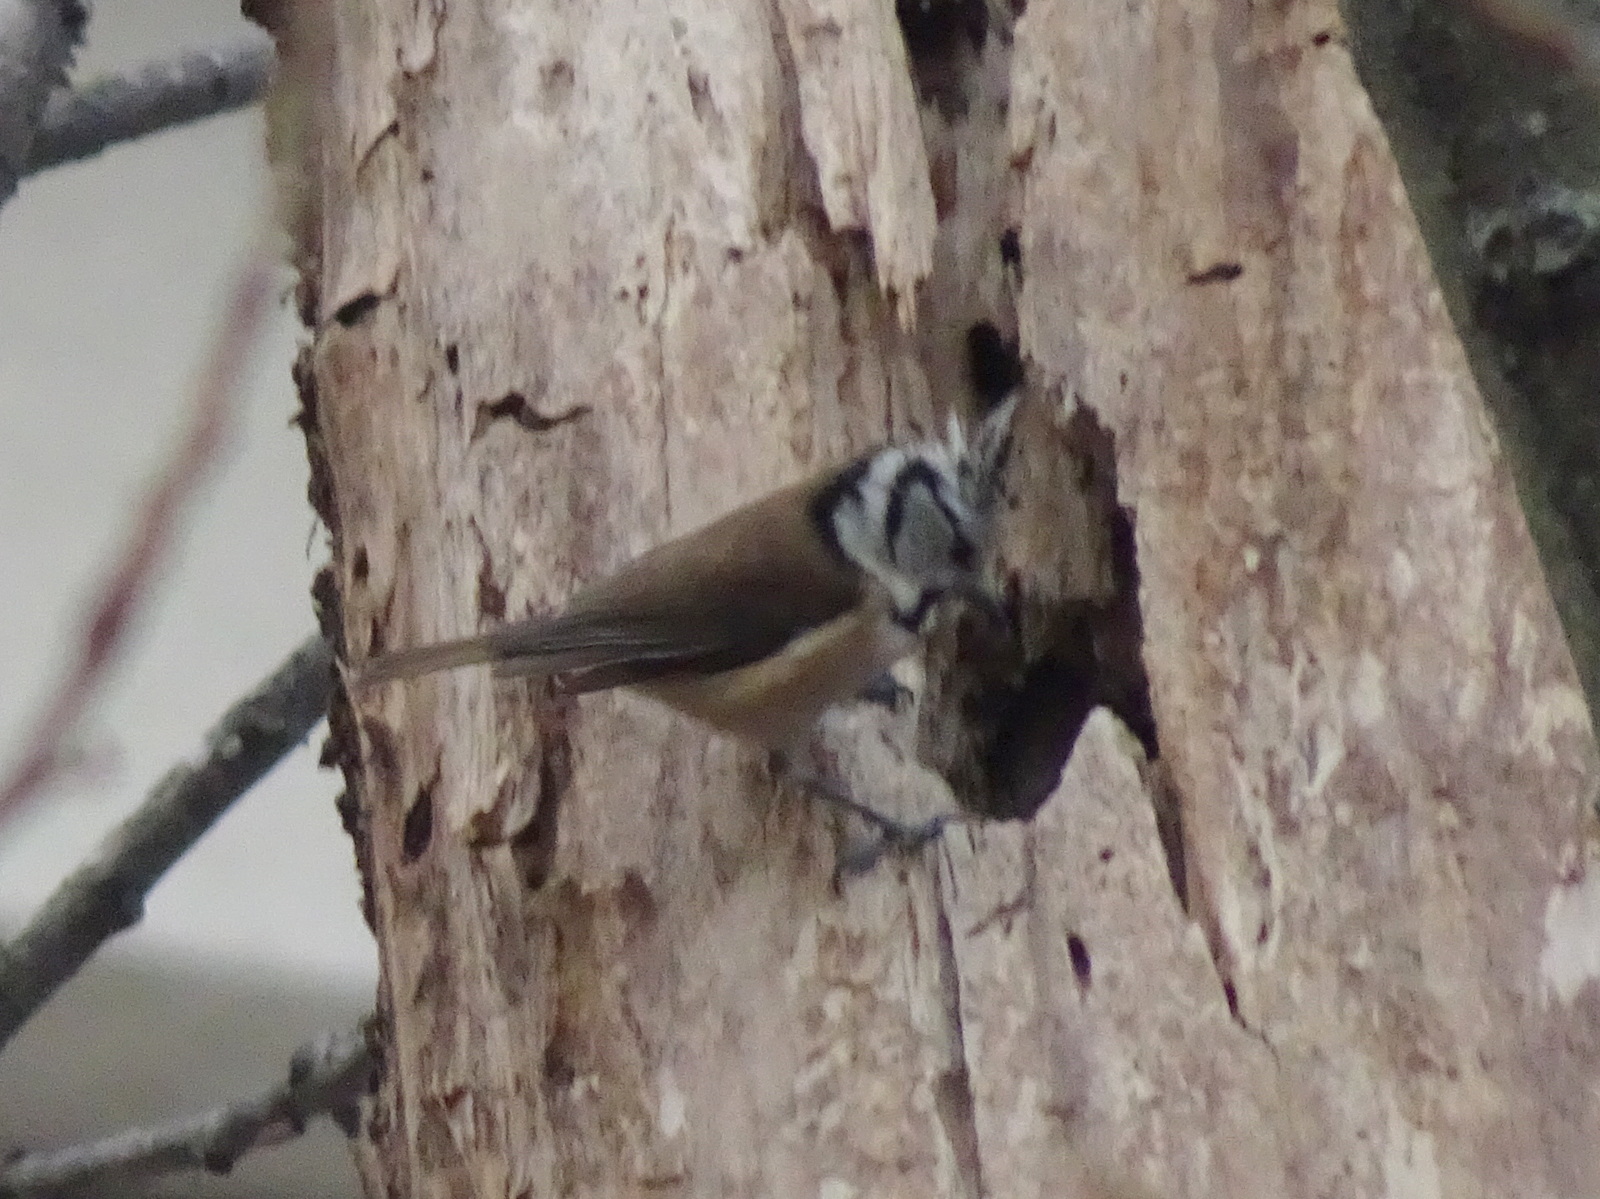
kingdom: Animalia
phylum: Chordata
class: Aves
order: Passeriformes
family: Paridae
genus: Lophophanes
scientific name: Lophophanes cristatus
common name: European crested tit
